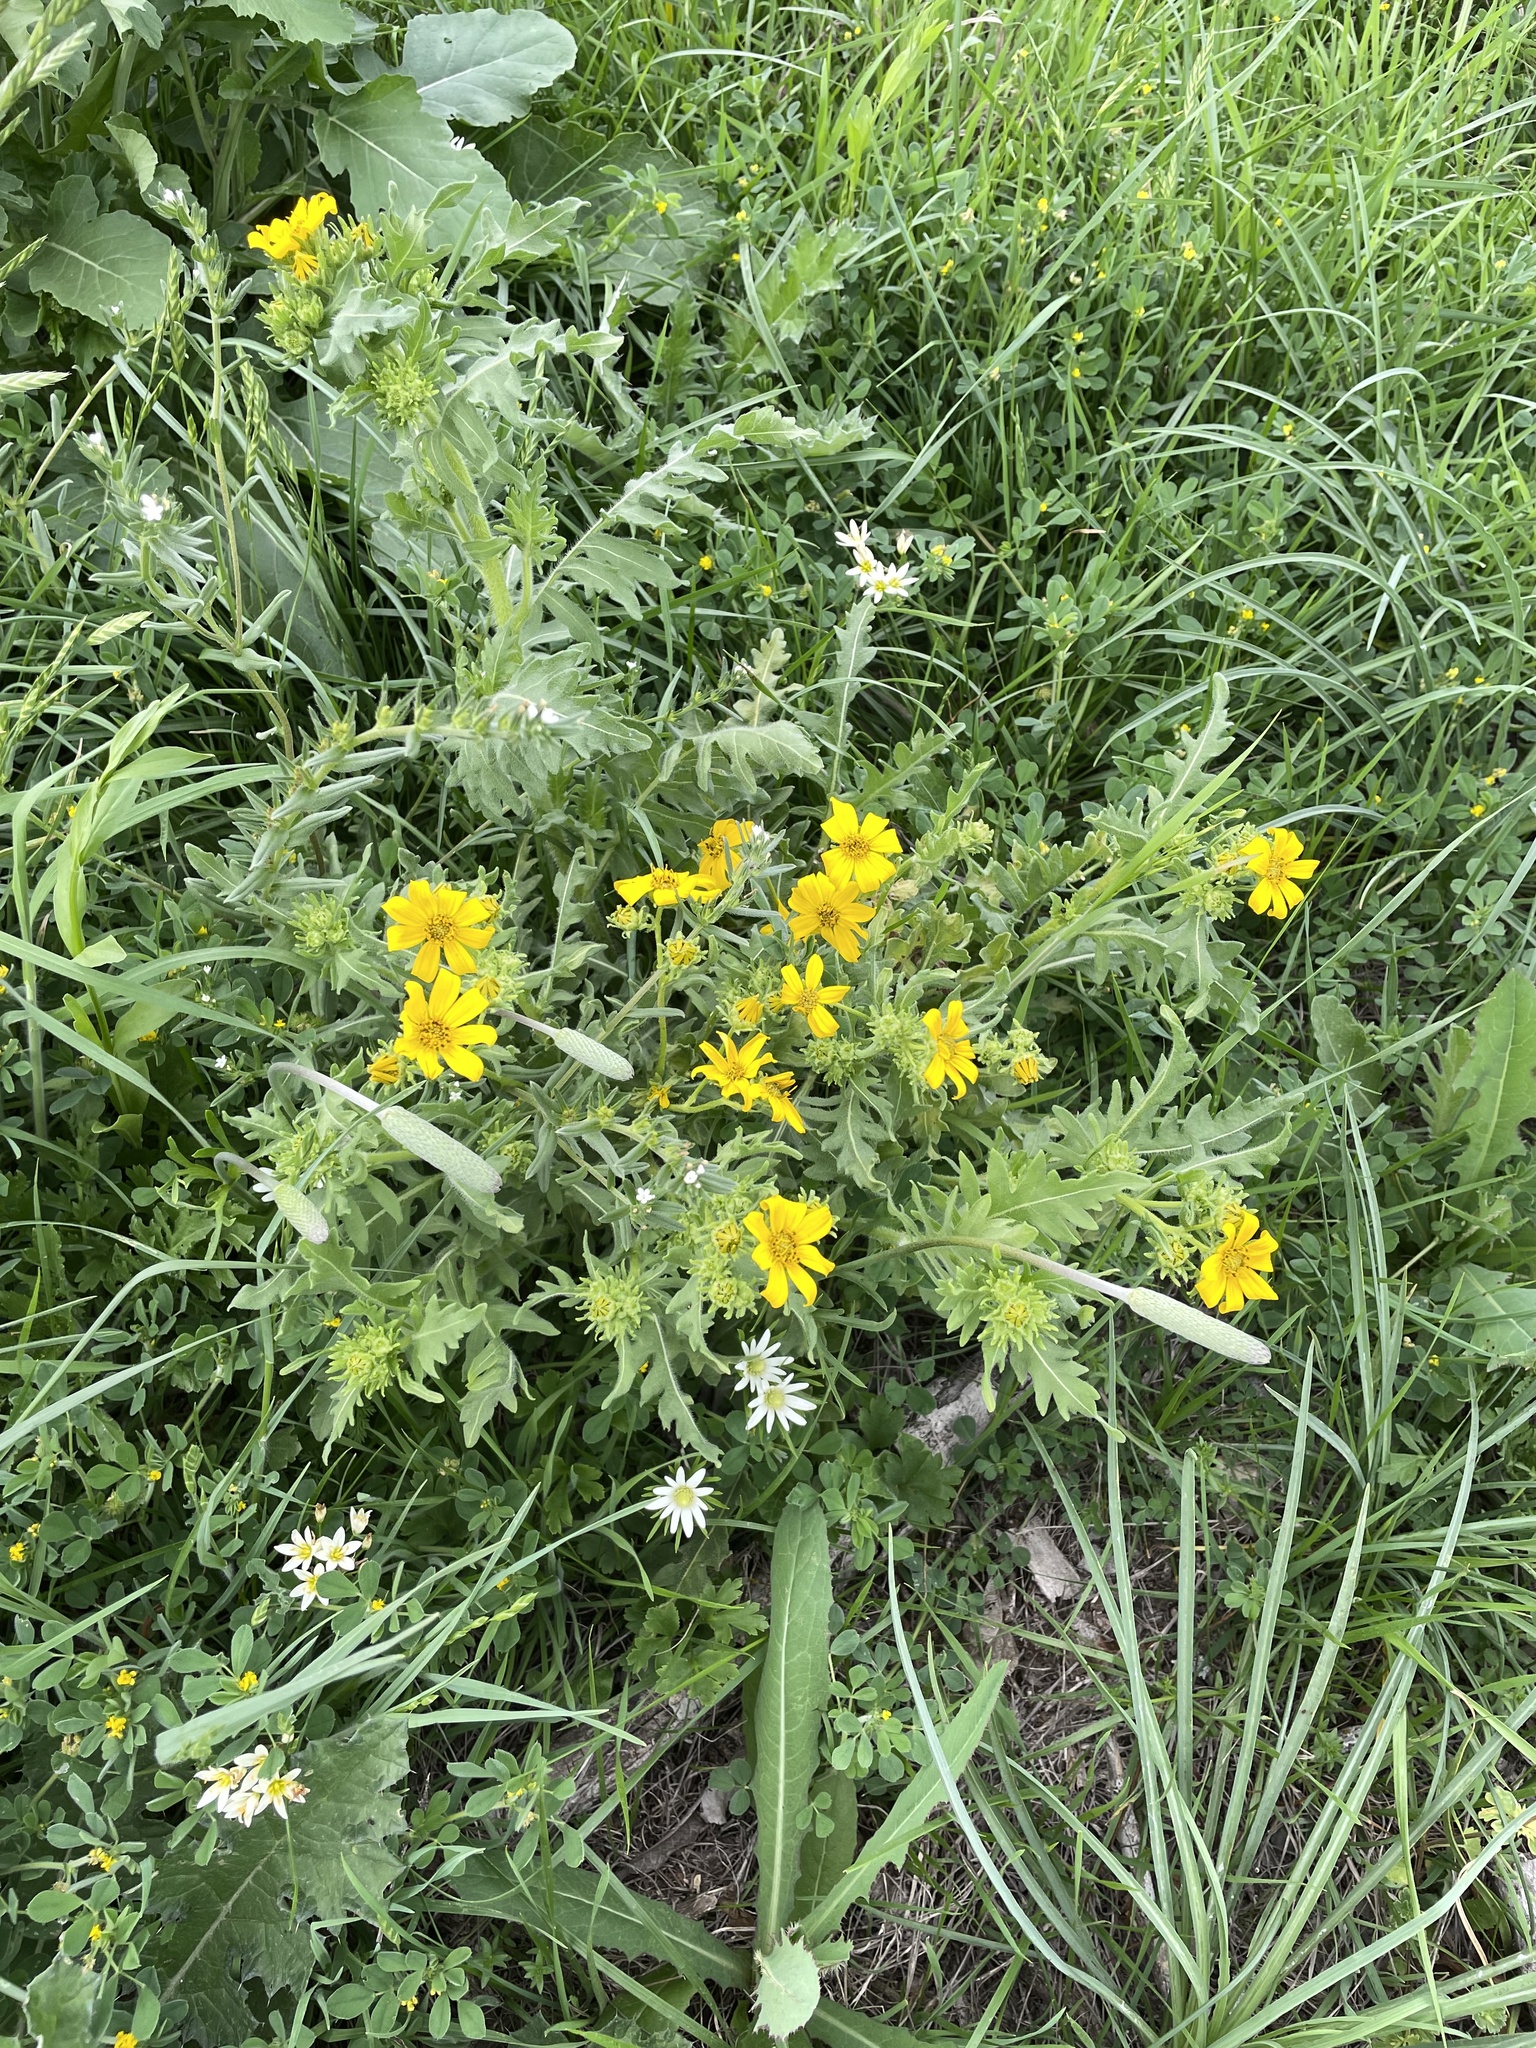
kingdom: Plantae
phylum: Tracheophyta
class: Magnoliopsida
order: Asterales
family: Asteraceae
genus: Engelmannia
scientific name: Engelmannia peristenia
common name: Engelmann's daisy
